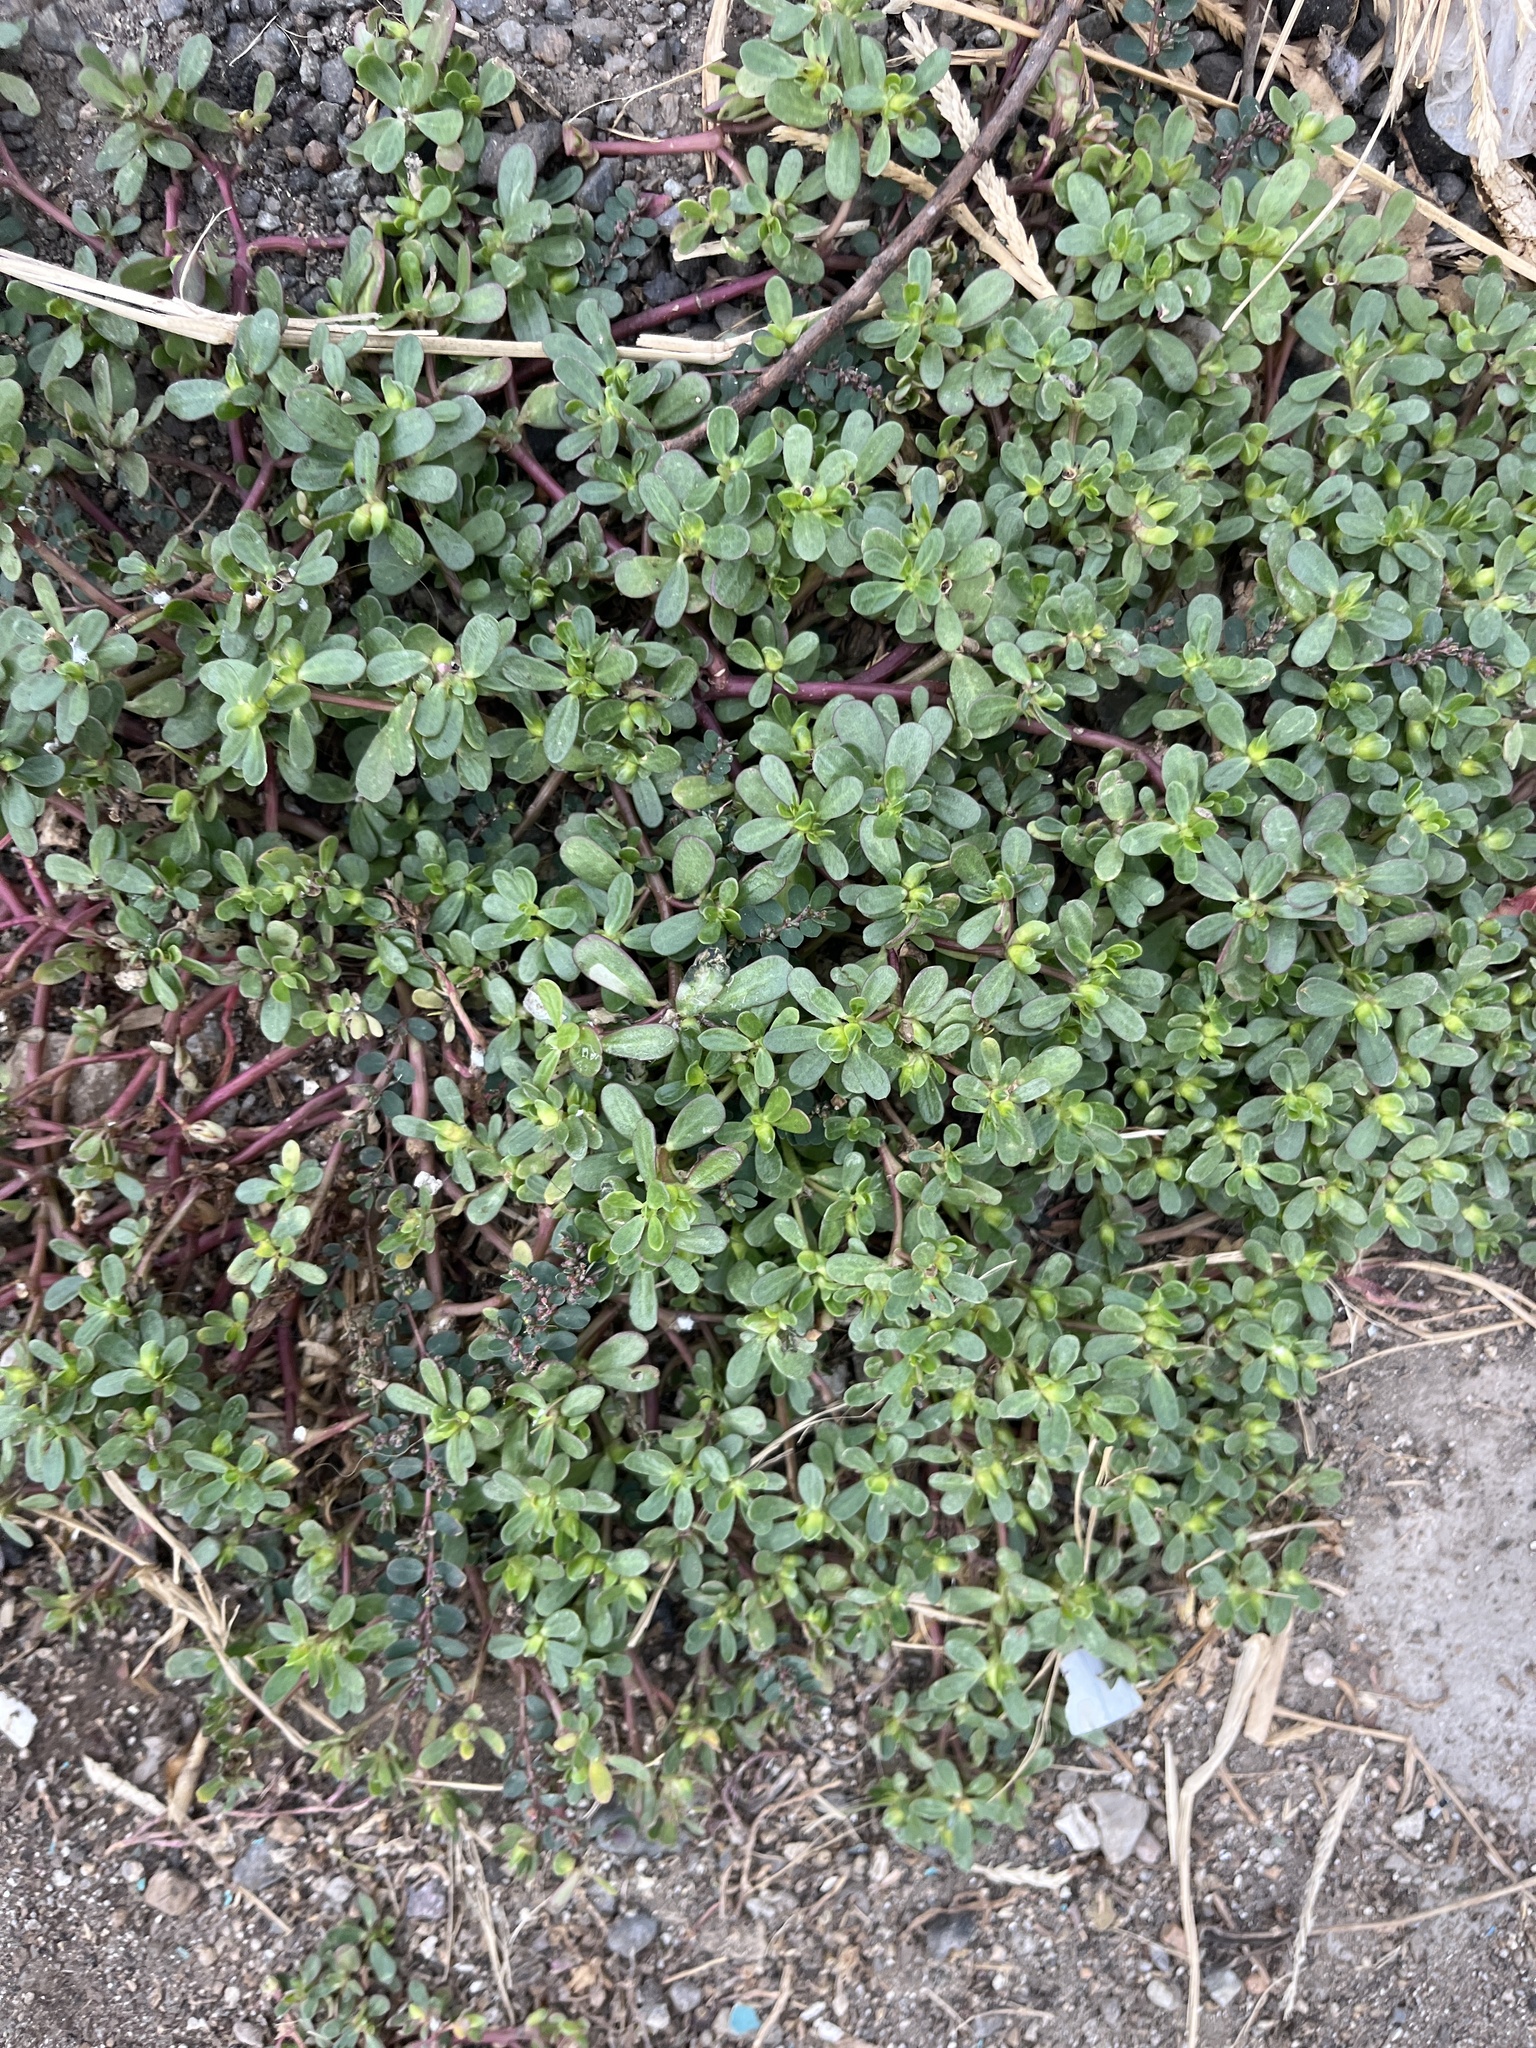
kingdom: Plantae
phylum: Tracheophyta
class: Magnoliopsida
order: Caryophyllales
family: Portulacaceae
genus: Portulaca
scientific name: Portulaca oleracea
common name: Common purslane
